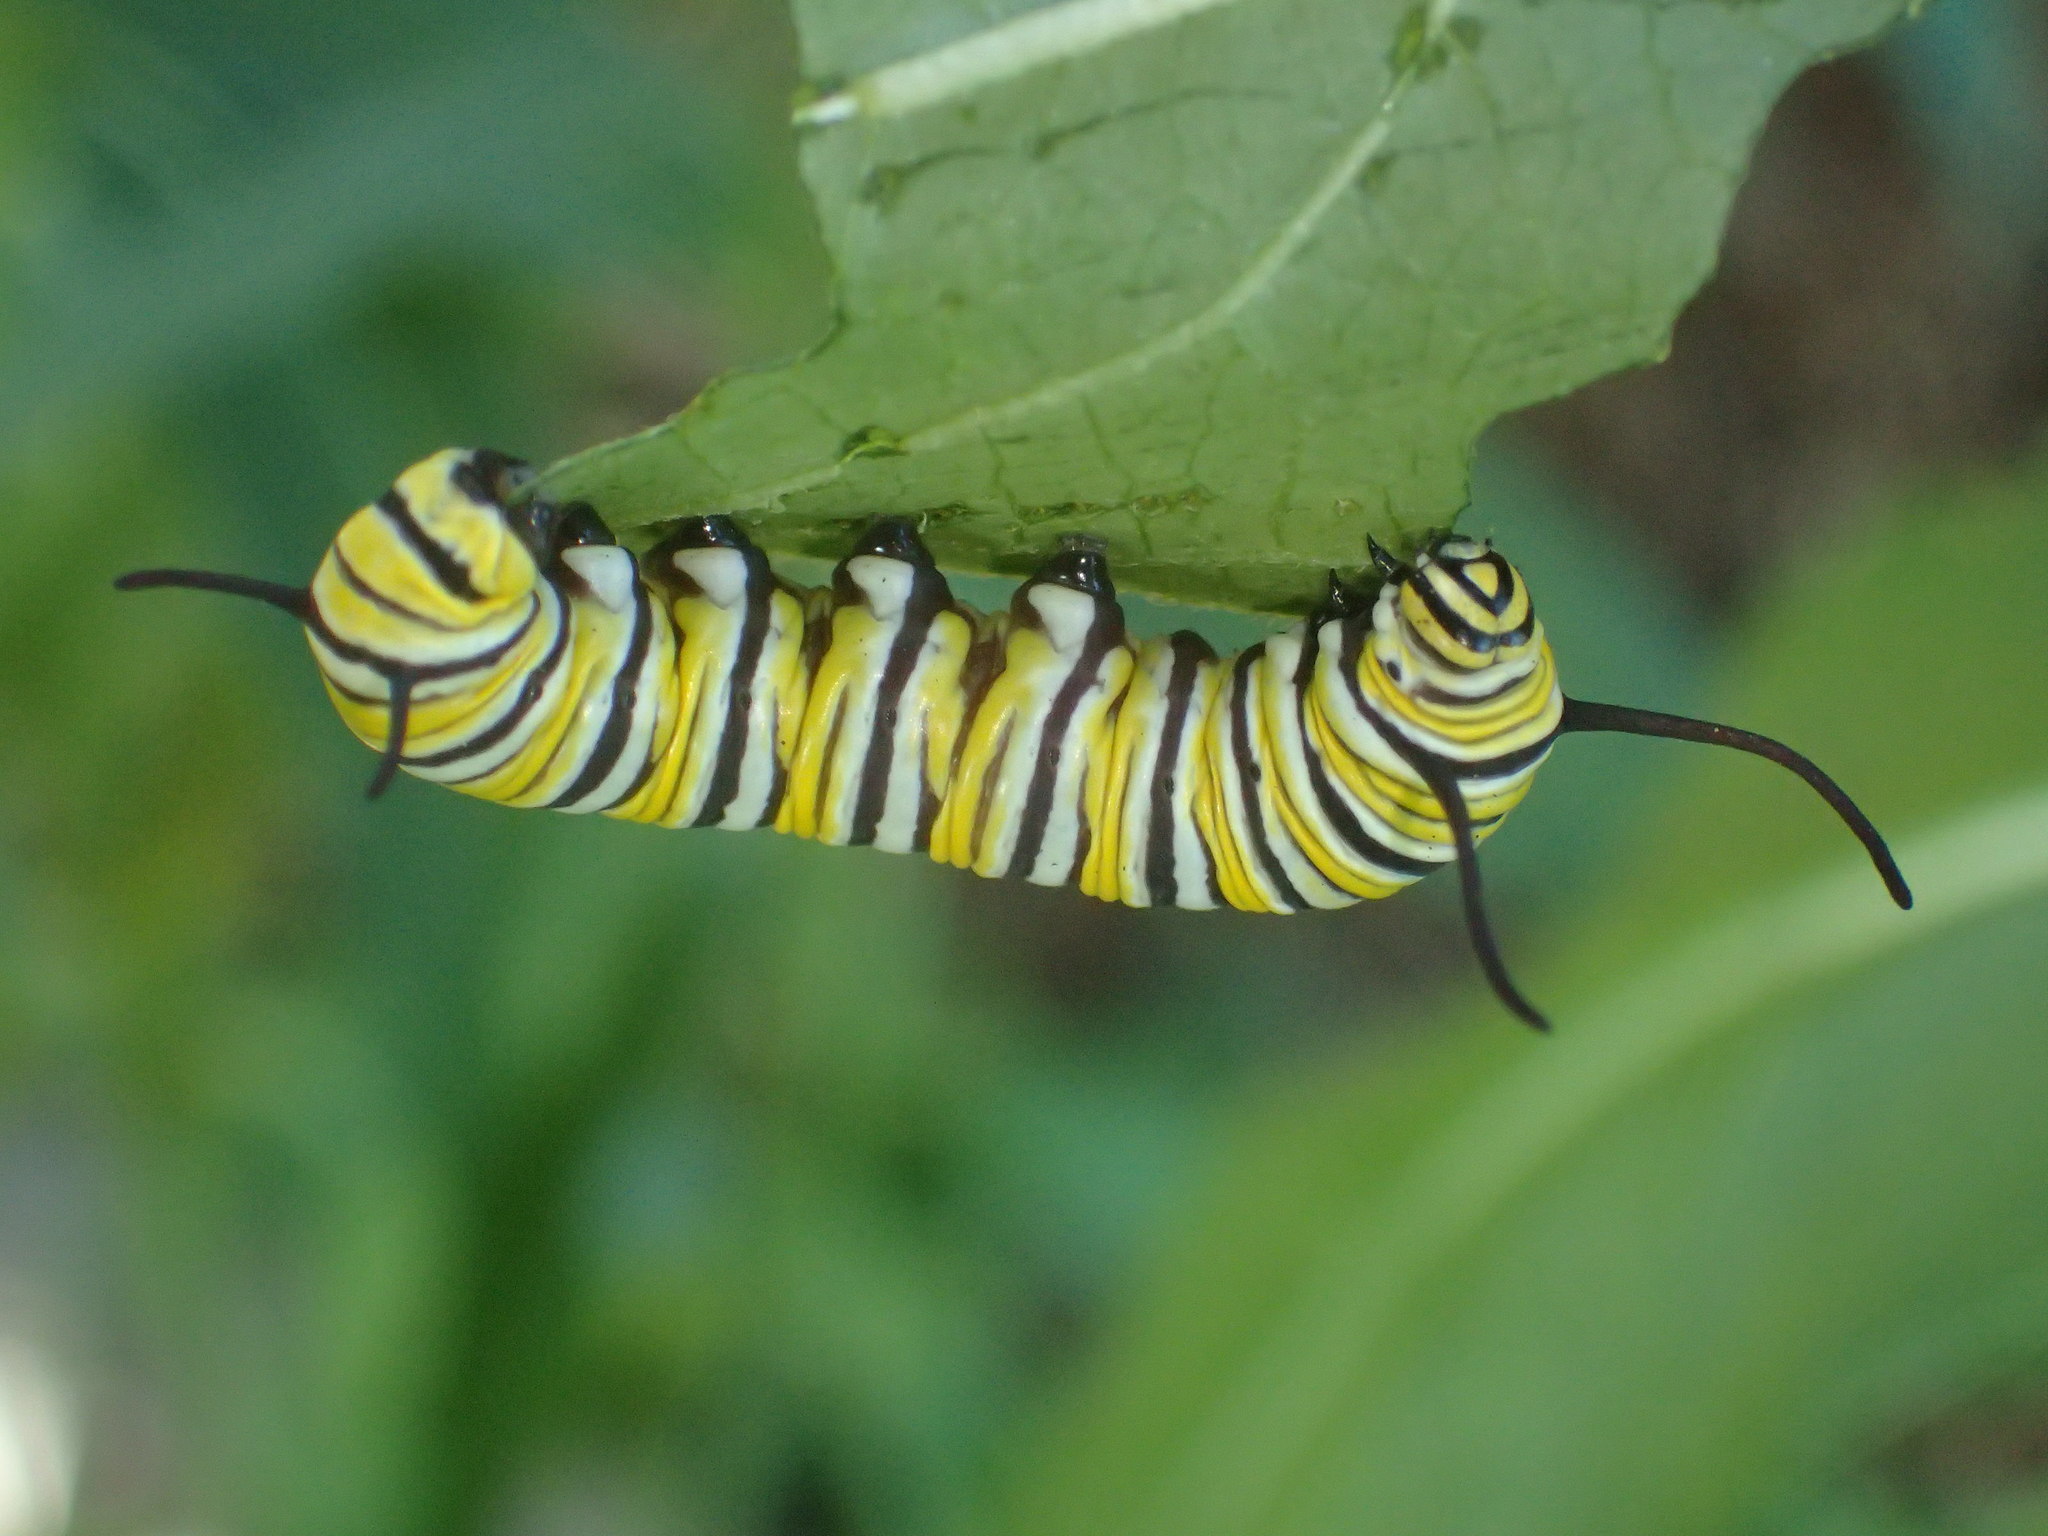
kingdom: Animalia
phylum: Arthropoda
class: Insecta
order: Lepidoptera
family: Nymphalidae
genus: Danaus
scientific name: Danaus plexippus
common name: Monarch
